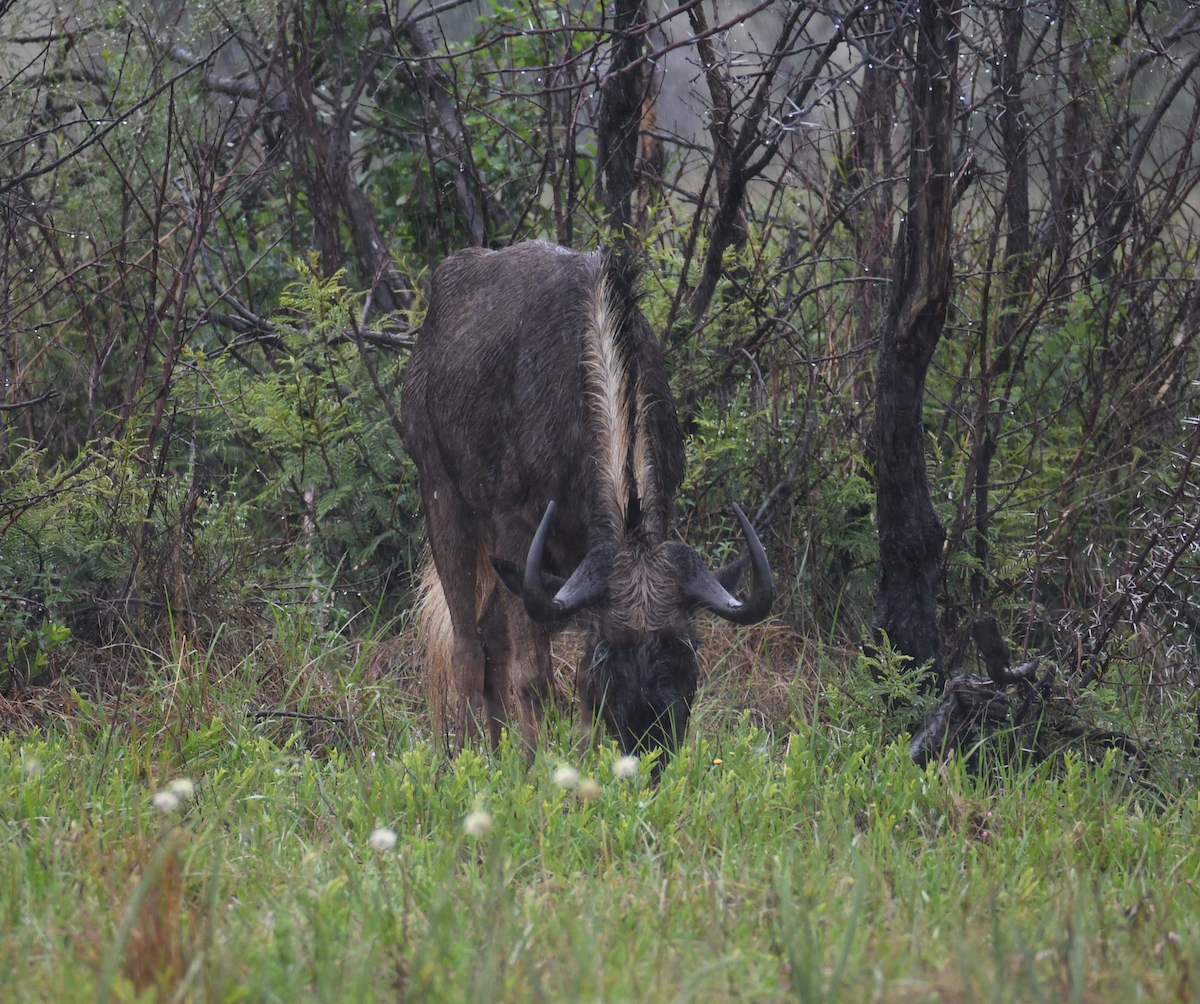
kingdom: Animalia
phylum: Chordata
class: Mammalia
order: Artiodactyla
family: Bovidae
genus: Connochaetes
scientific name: Connochaetes gnou
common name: Black wildebeest
